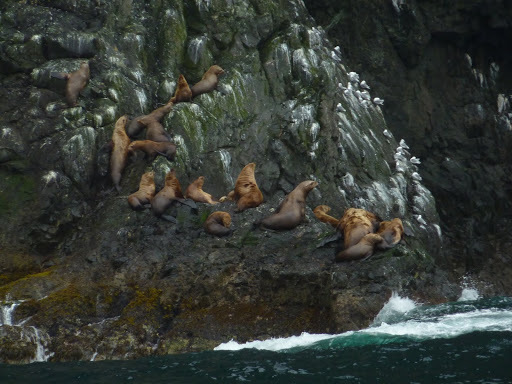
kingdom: Animalia
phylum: Chordata
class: Mammalia
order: Carnivora
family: Otariidae
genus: Eumetopias
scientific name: Eumetopias jubatus
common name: Steller sea lion
